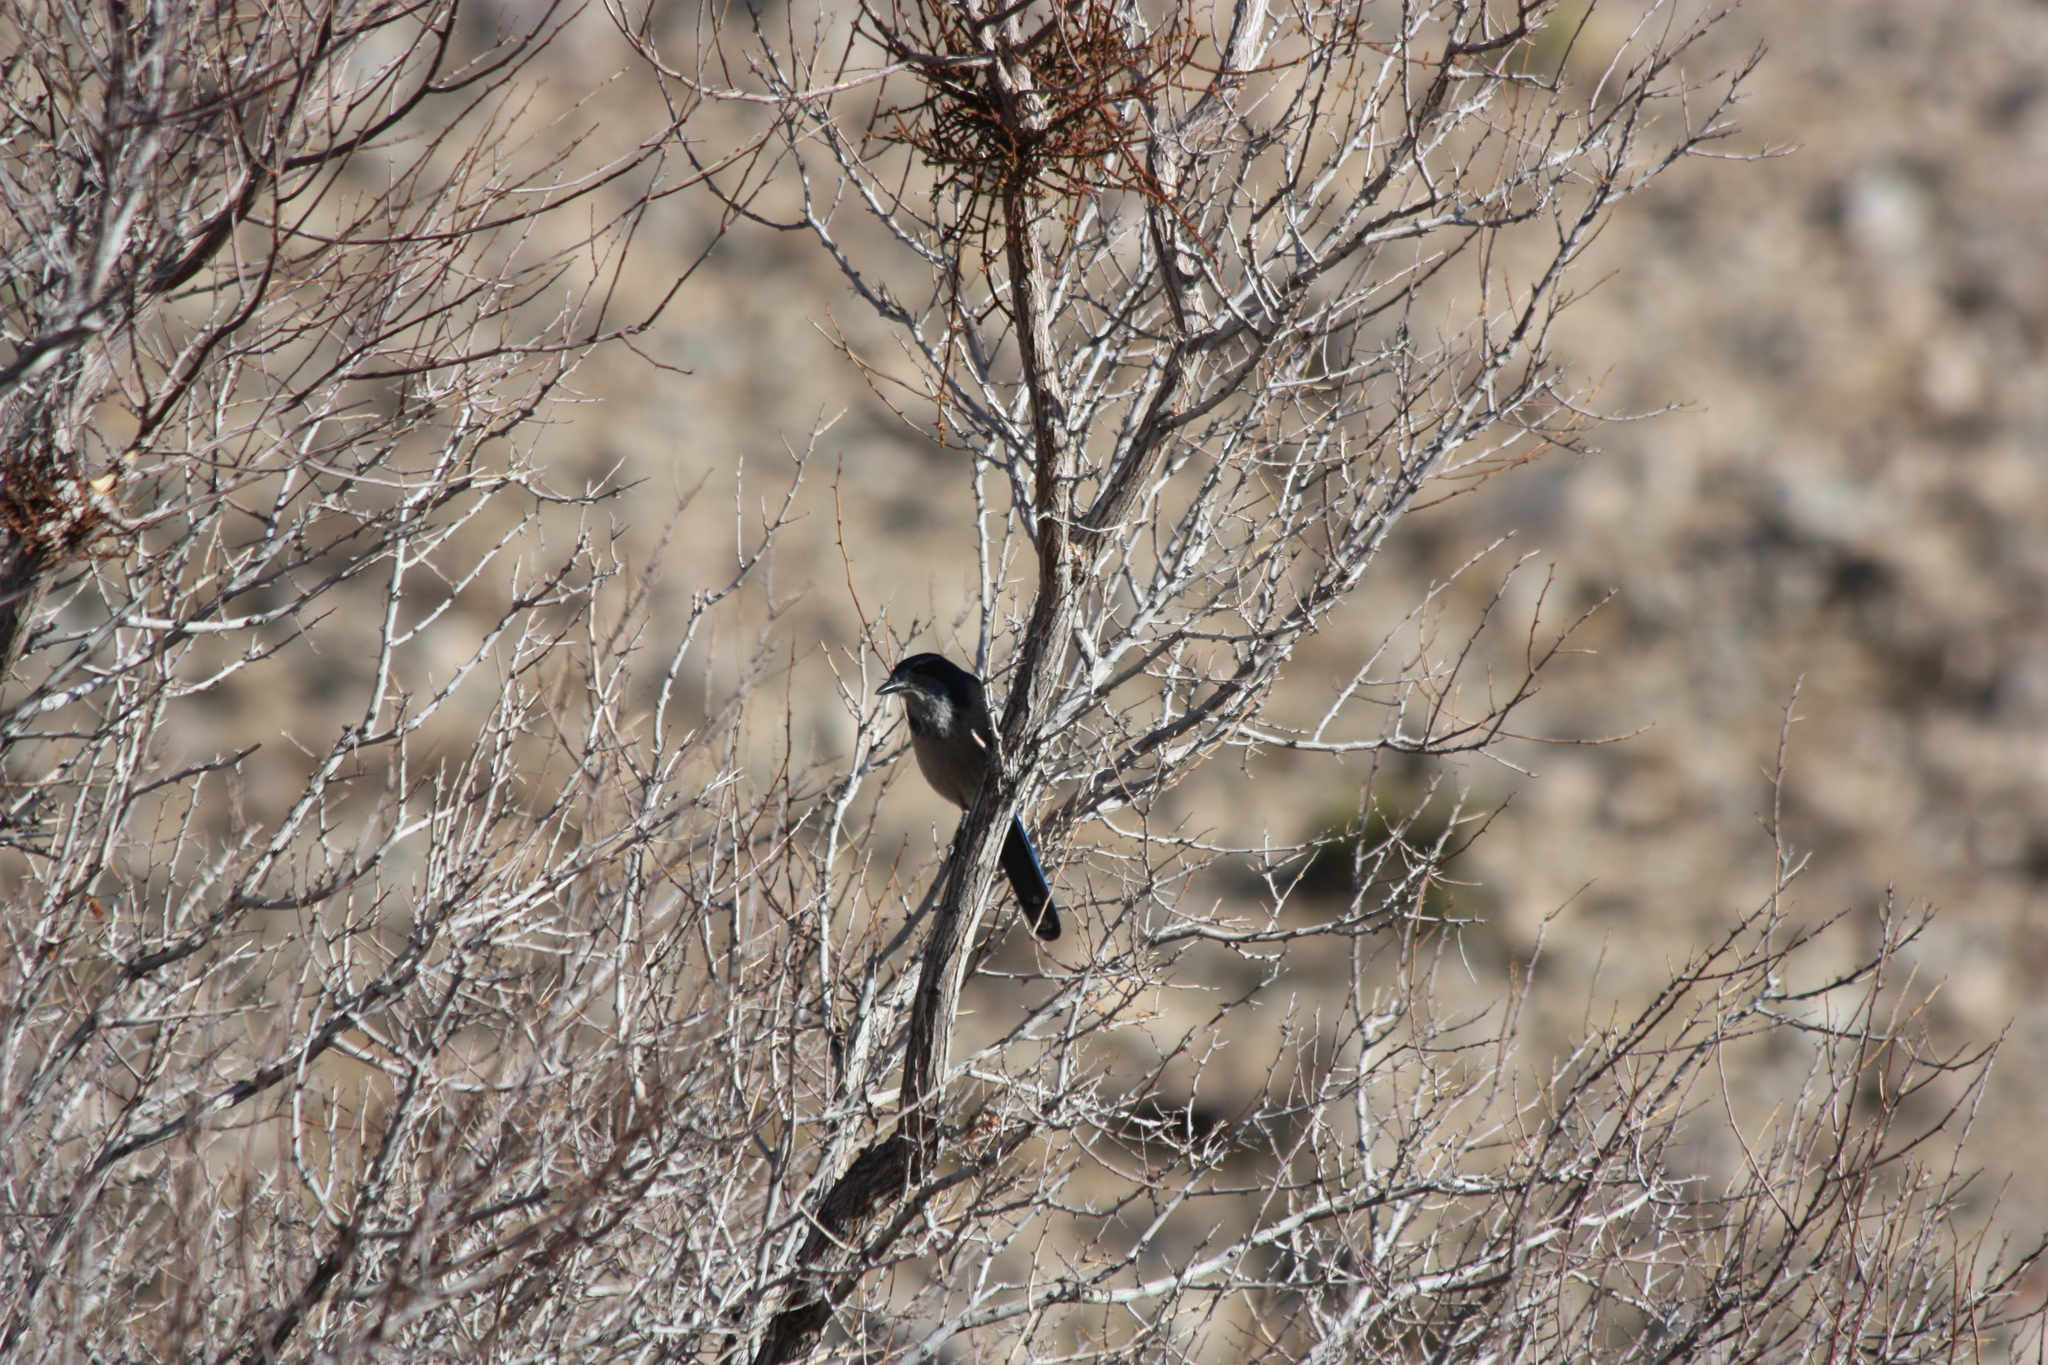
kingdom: Animalia
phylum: Chordata
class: Aves
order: Passeriformes
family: Corvidae
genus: Aphelocoma
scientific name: Aphelocoma californica
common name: California scrub-jay
